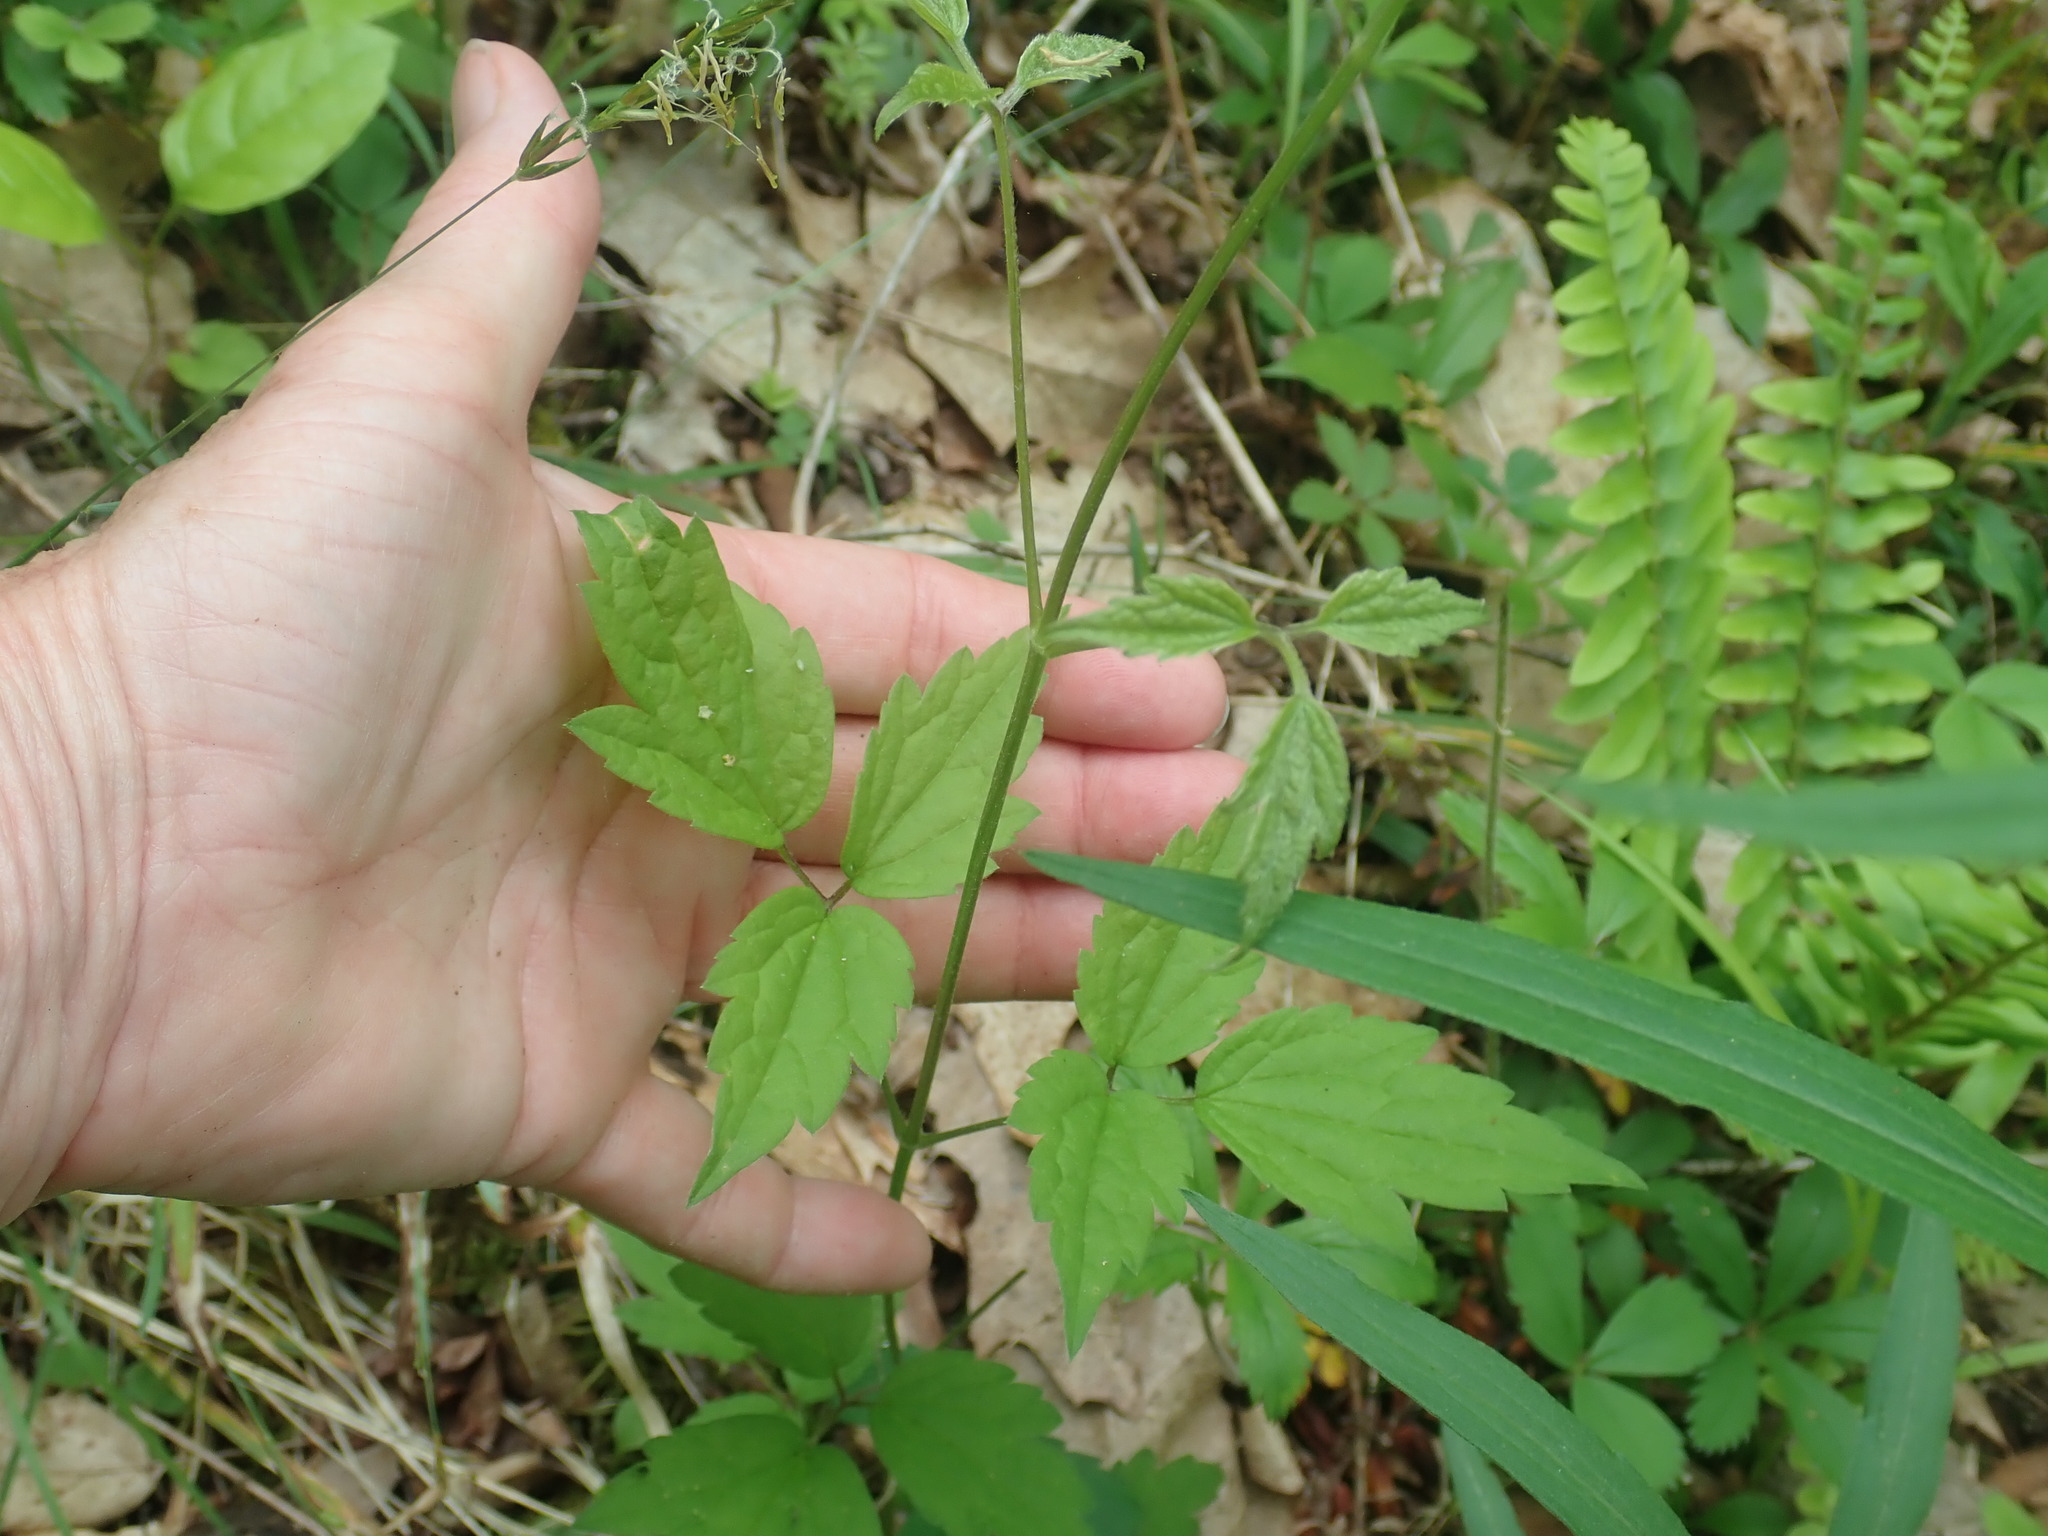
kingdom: Plantae
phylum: Tracheophyta
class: Magnoliopsida
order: Ranunculales
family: Ranunculaceae
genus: Clematis
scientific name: Clematis virginiana
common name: Virgin's-bower
